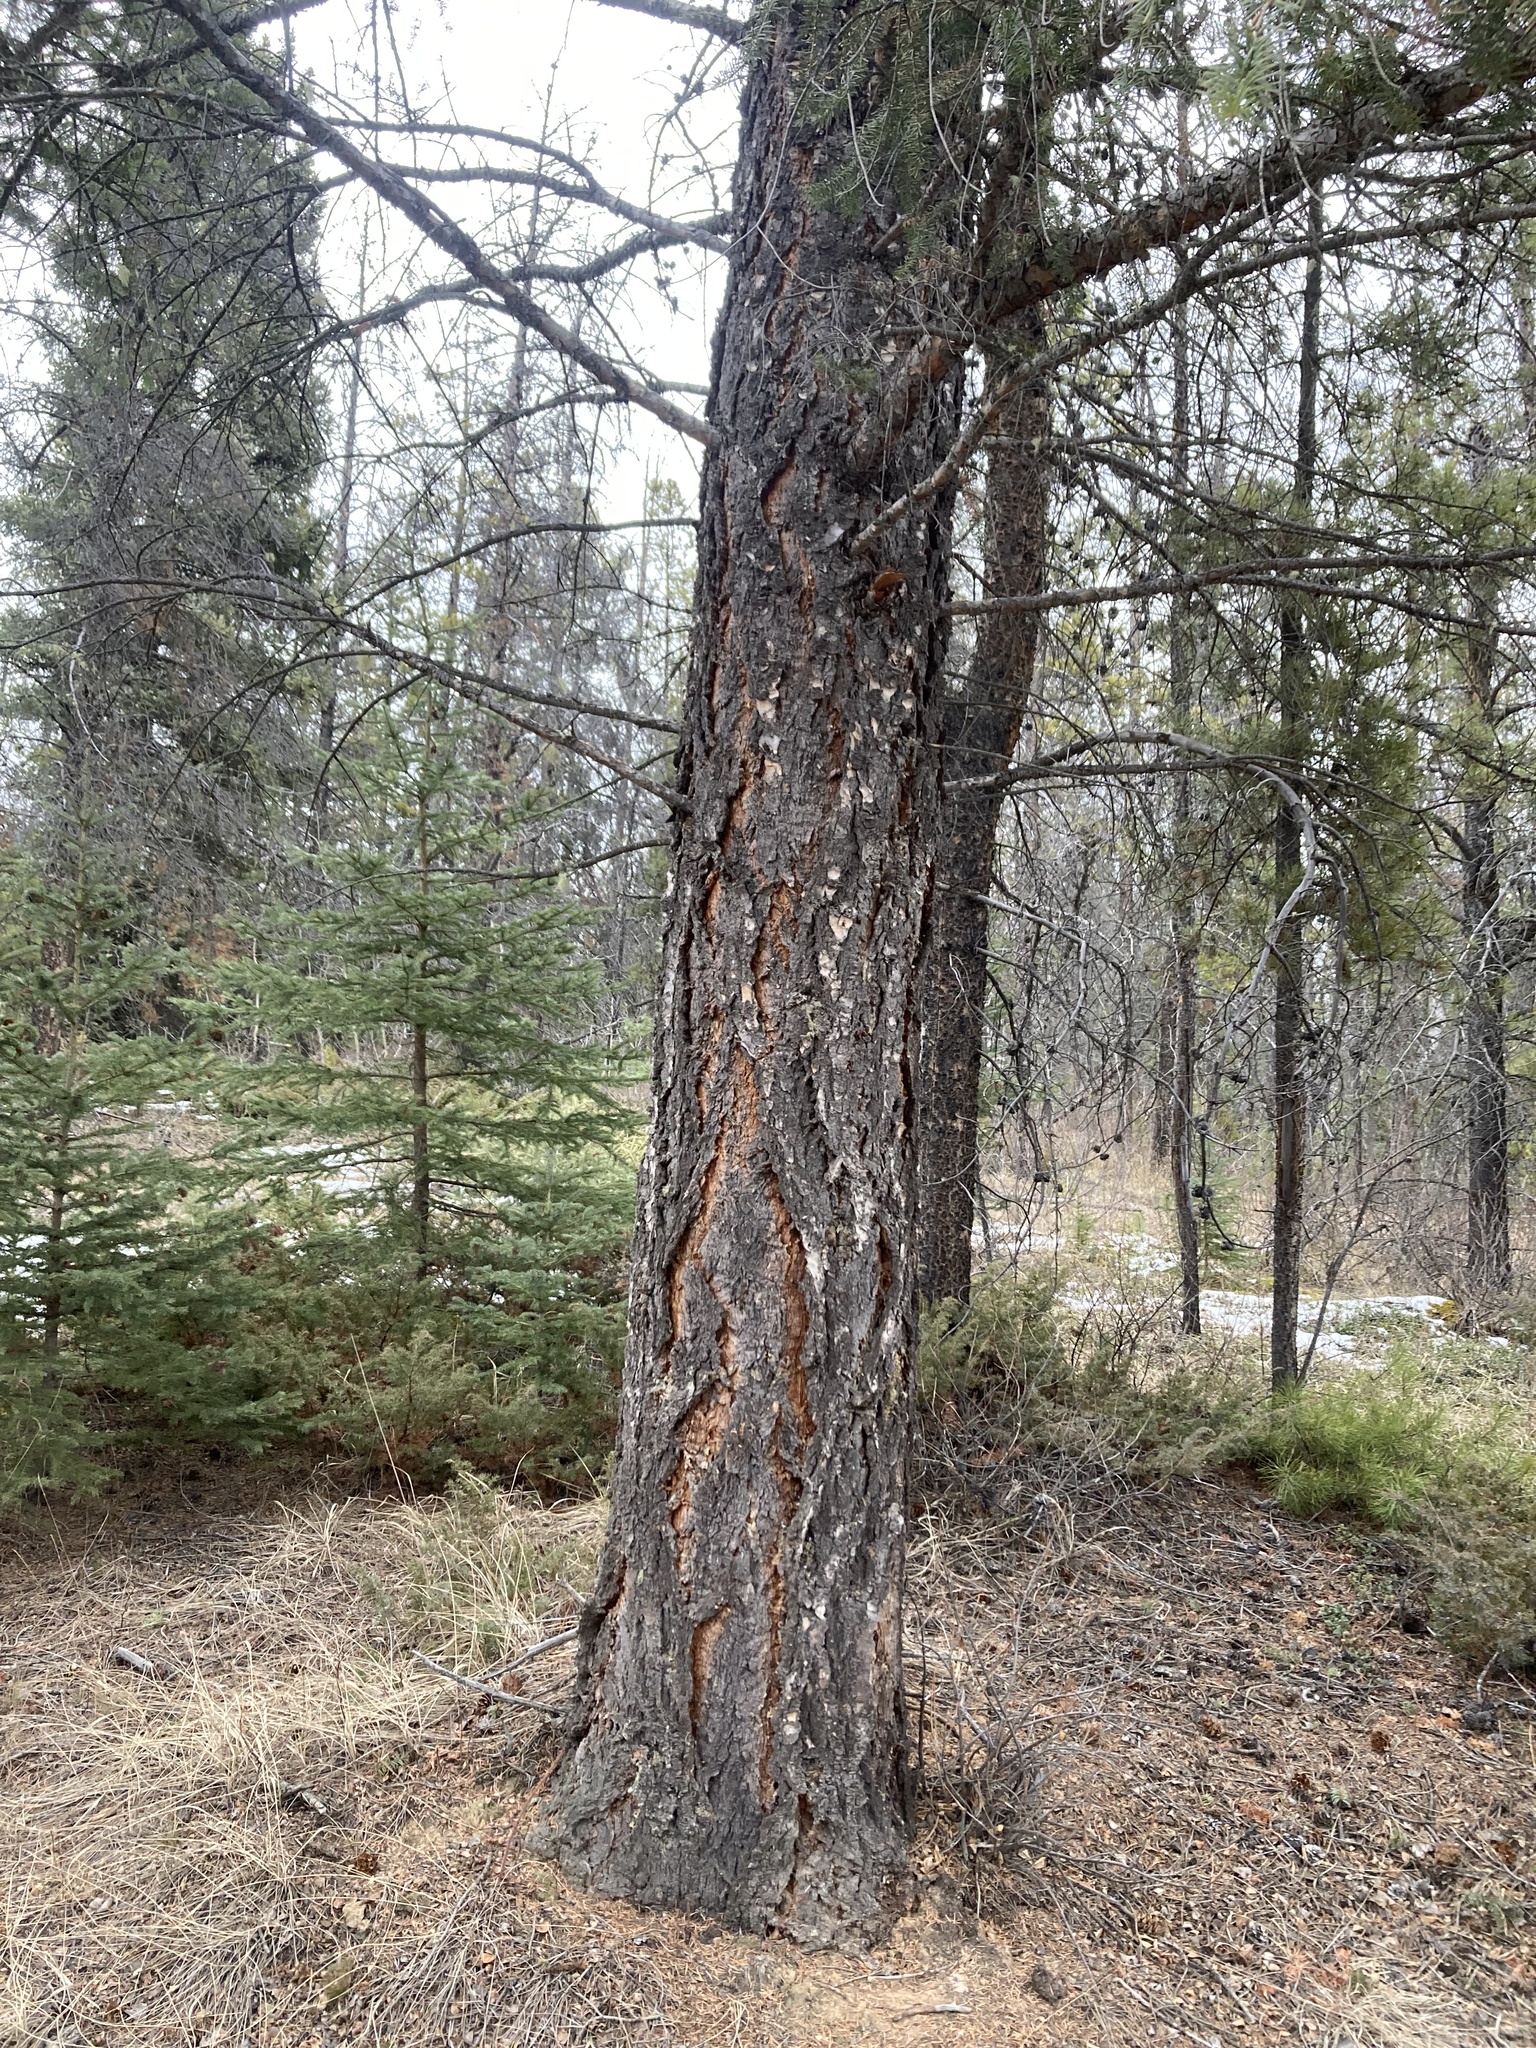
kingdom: Plantae
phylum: Tracheophyta
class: Pinopsida
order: Pinales
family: Pinaceae
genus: Pseudotsuga
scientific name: Pseudotsuga menziesii
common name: Douglas fir
